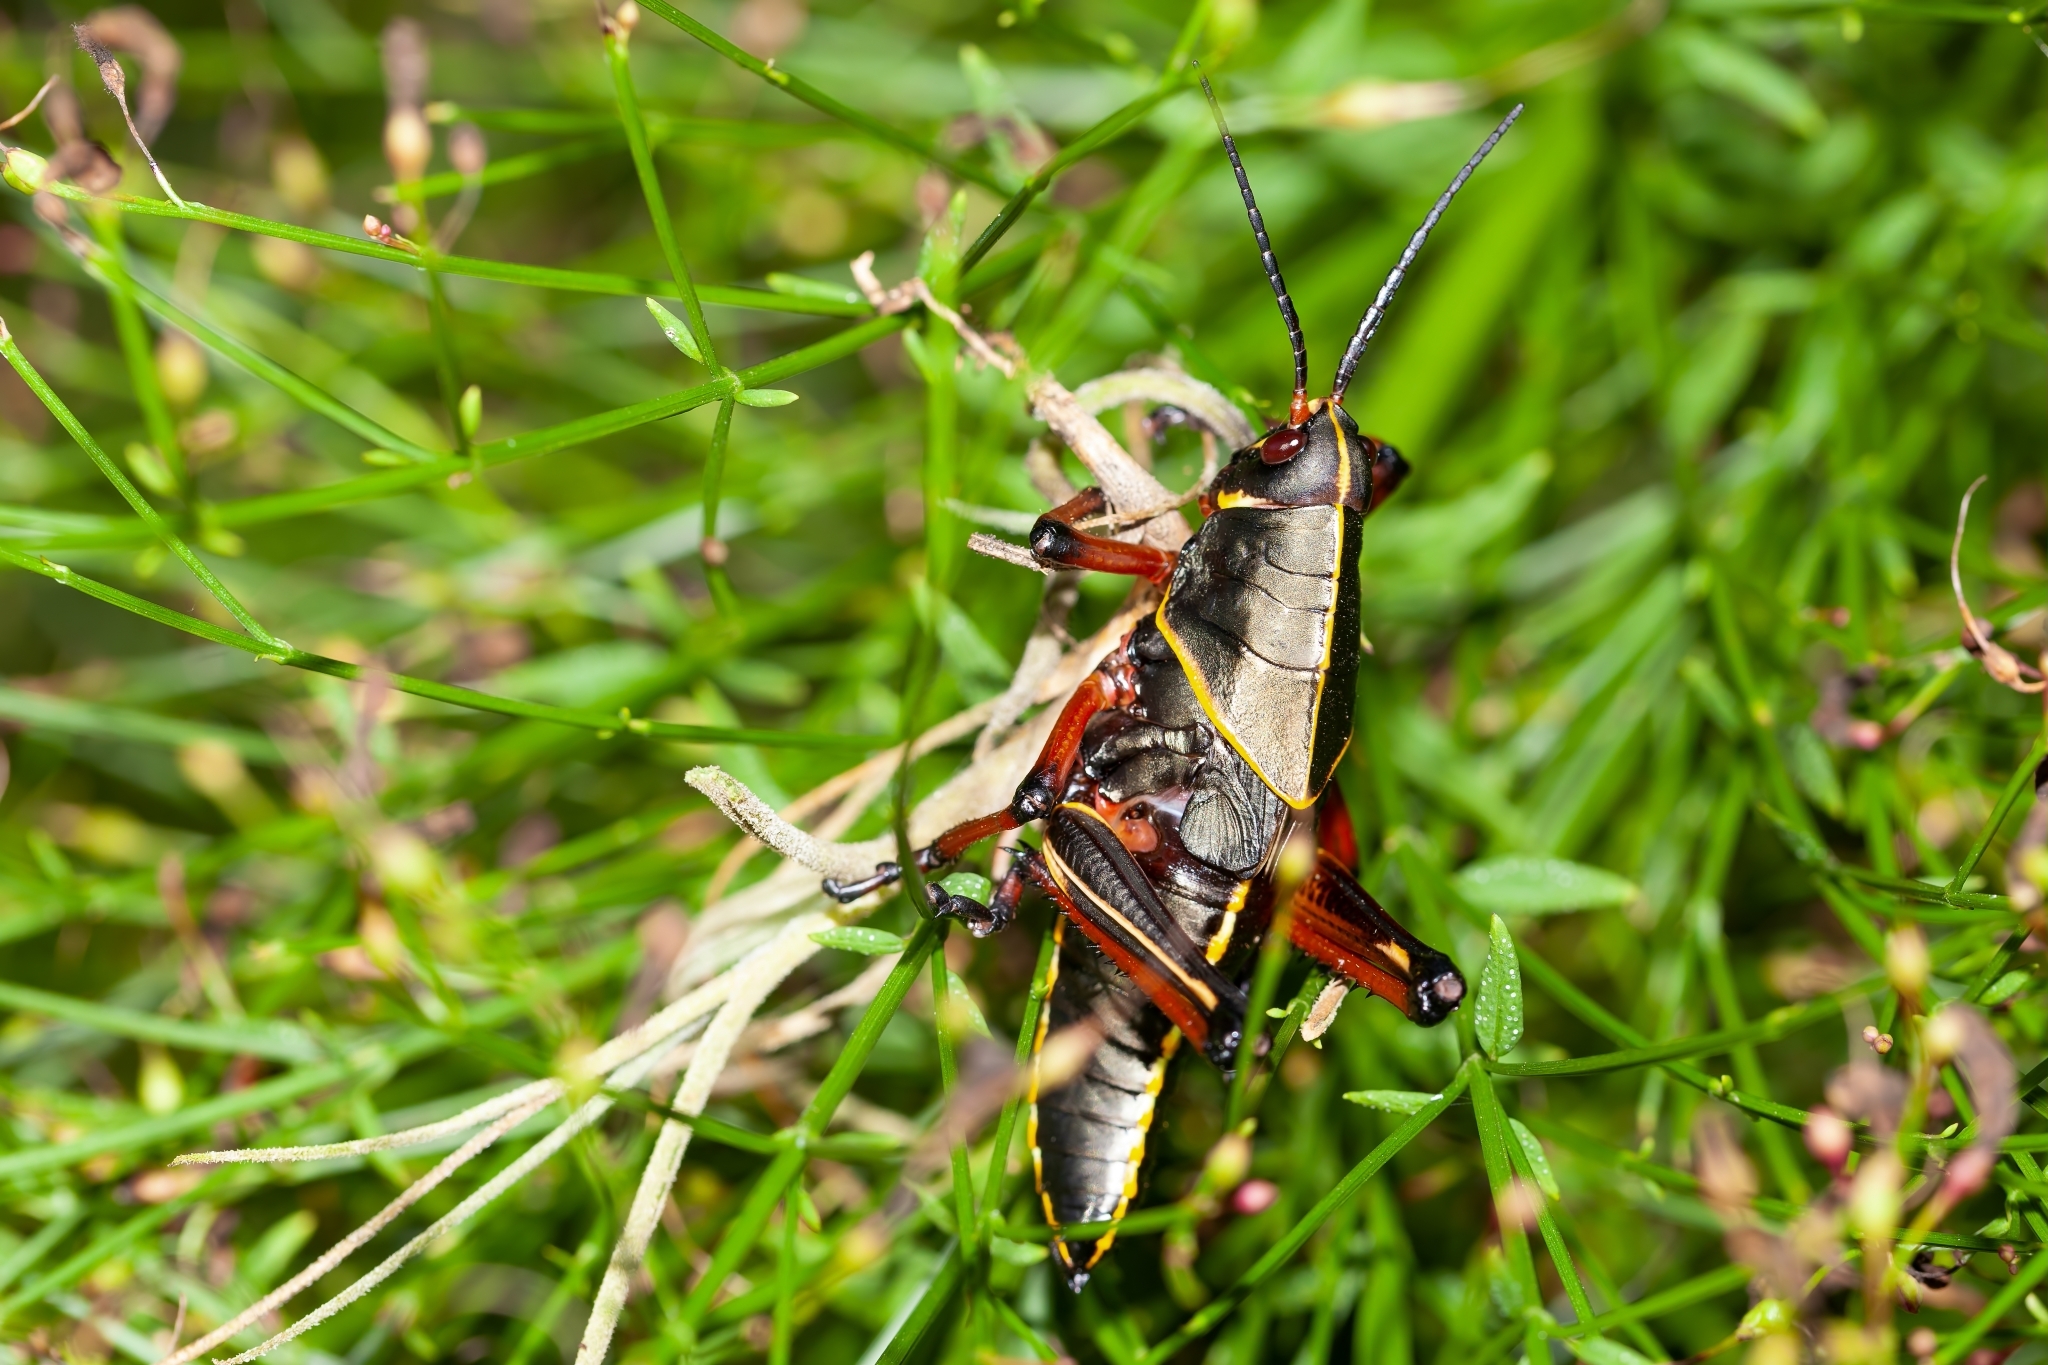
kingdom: Animalia
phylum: Arthropoda
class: Insecta
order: Orthoptera
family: Romaleidae
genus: Romalea
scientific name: Romalea microptera
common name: Eastern lubber grasshopper
